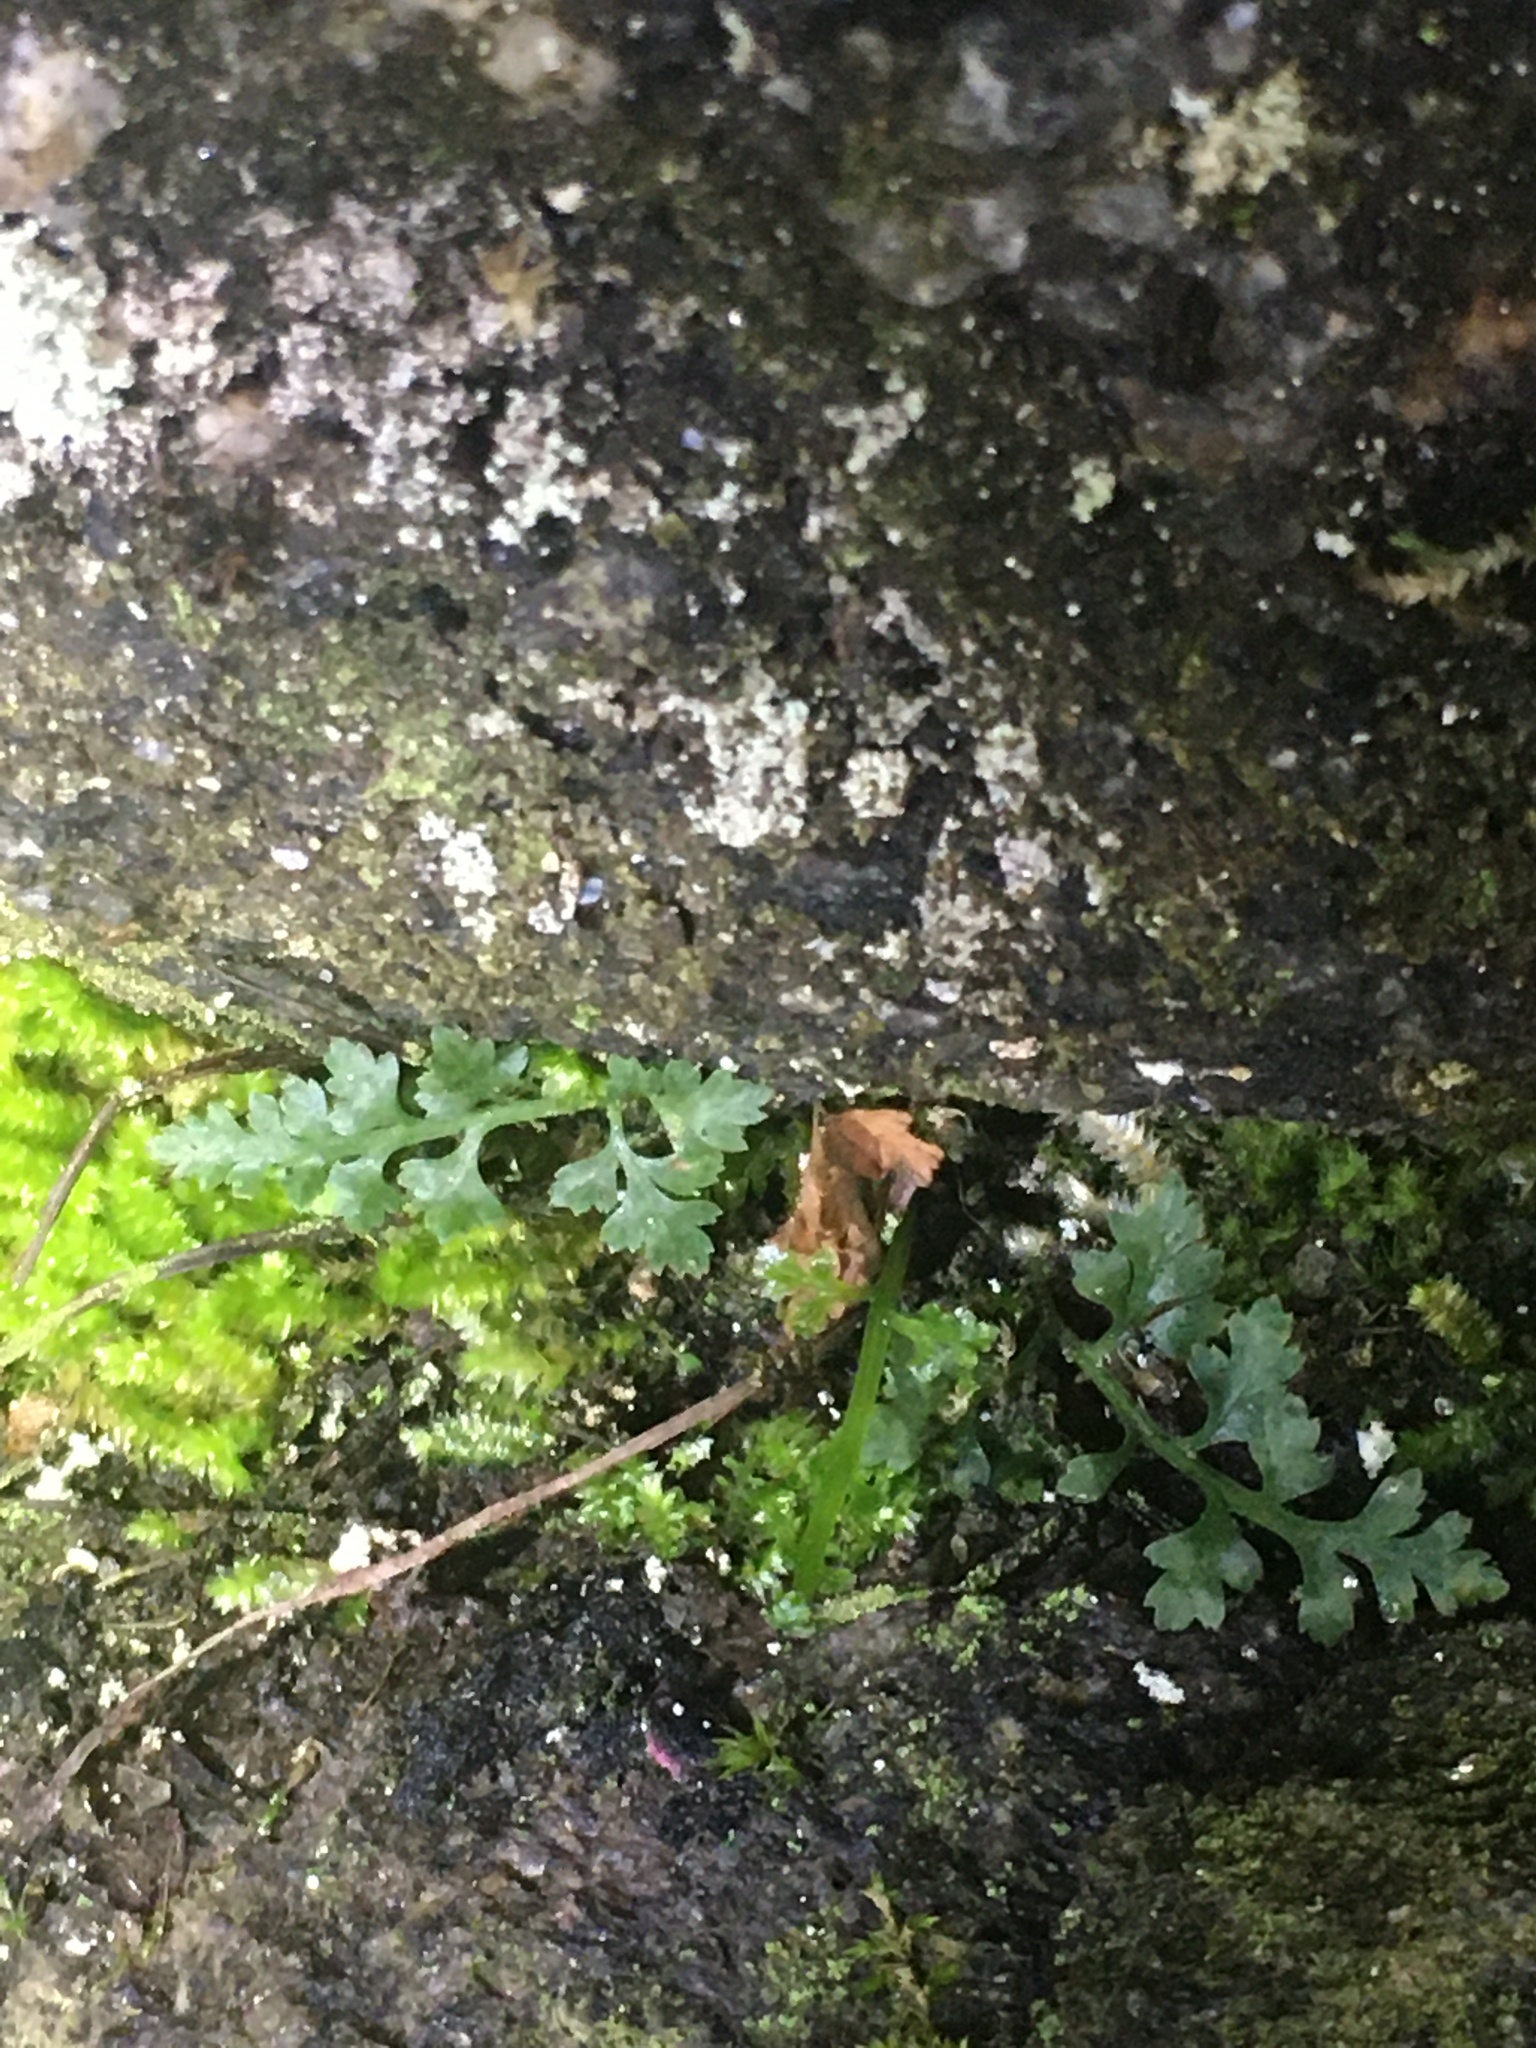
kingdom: Plantae
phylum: Tracheophyta
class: Polypodiopsida
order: Polypodiales
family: Aspleniaceae
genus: Asplenium
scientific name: Asplenium montanum
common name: Mountain spleenwort
